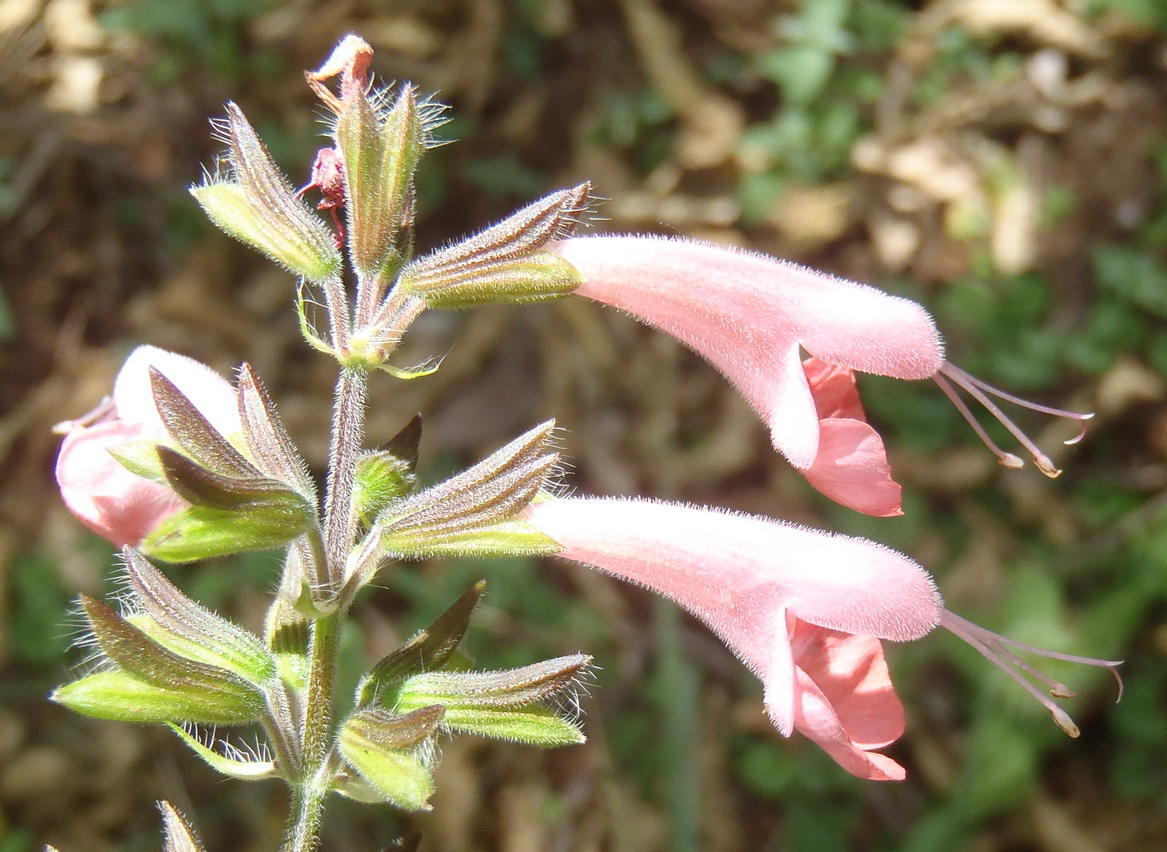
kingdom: Plantae
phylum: Tracheophyta
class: Magnoliopsida
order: Lamiales
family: Lamiaceae
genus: Salvia
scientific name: Salvia coccinea
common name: Blood sage
